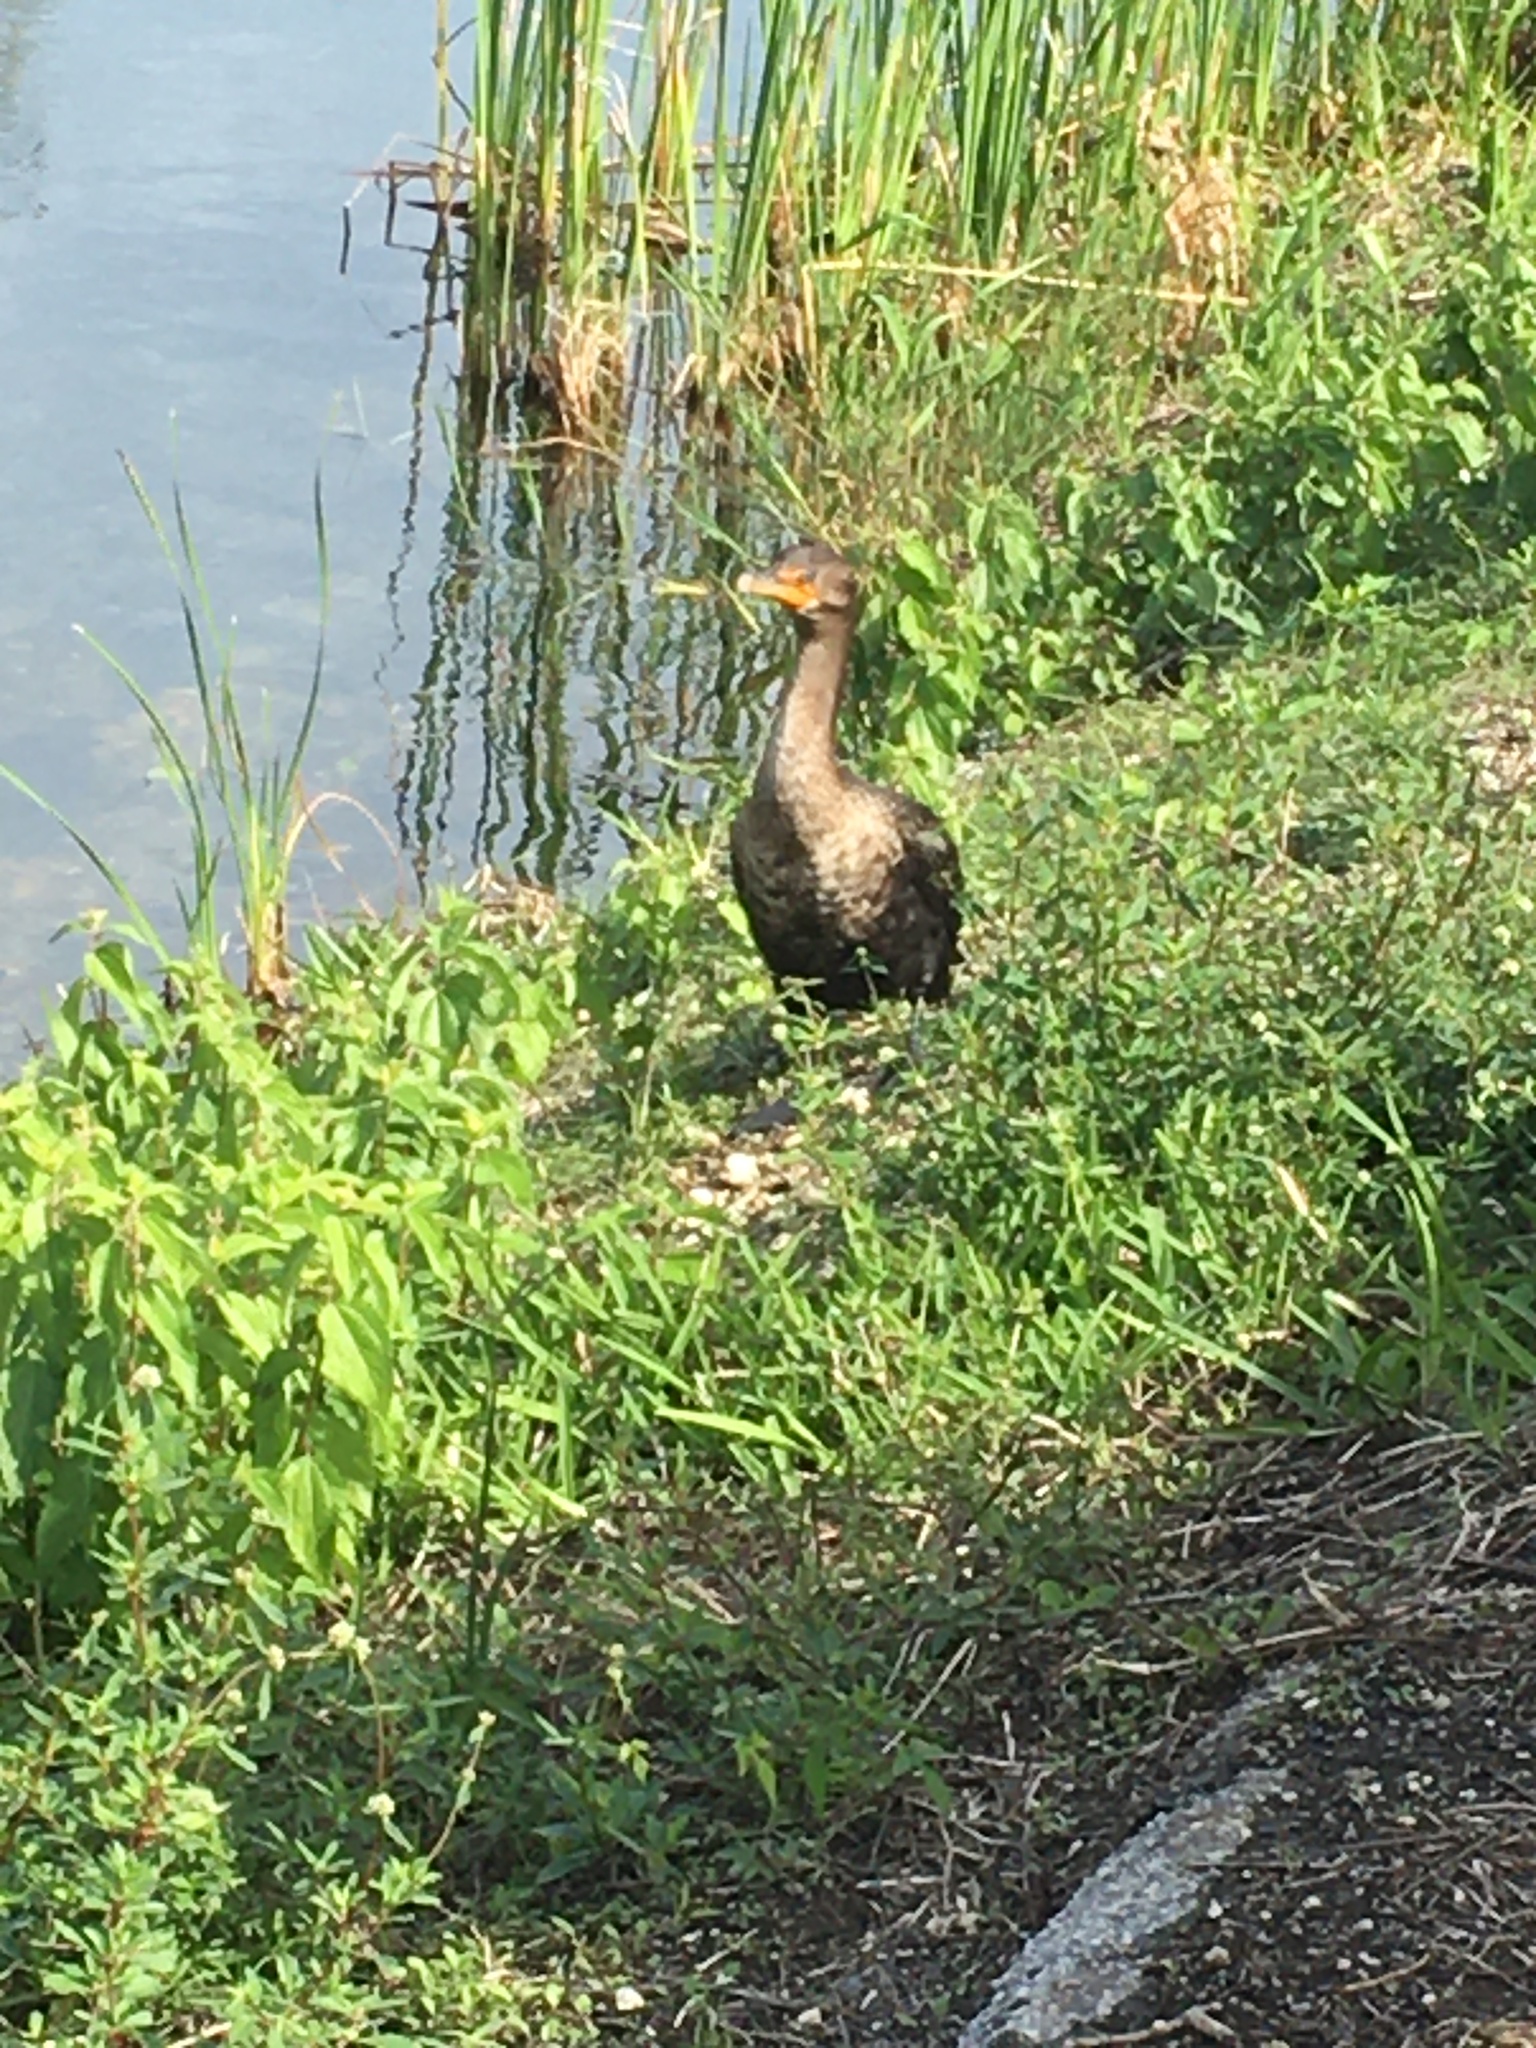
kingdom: Animalia
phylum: Chordata
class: Aves
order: Suliformes
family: Phalacrocoracidae
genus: Phalacrocorax
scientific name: Phalacrocorax auritus
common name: Double-crested cormorant
